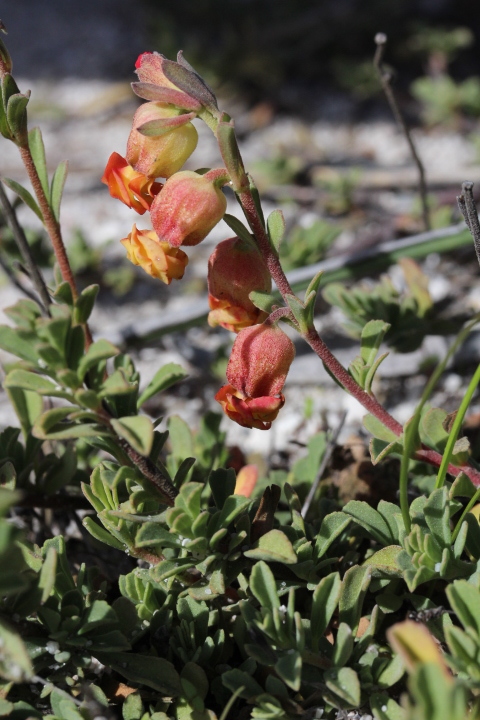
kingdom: Plantae
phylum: Tracheophyta
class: Magnoliopsida
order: Malvales
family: Malvaceae
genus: Hermannia
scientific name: Hermannia ternifolia
